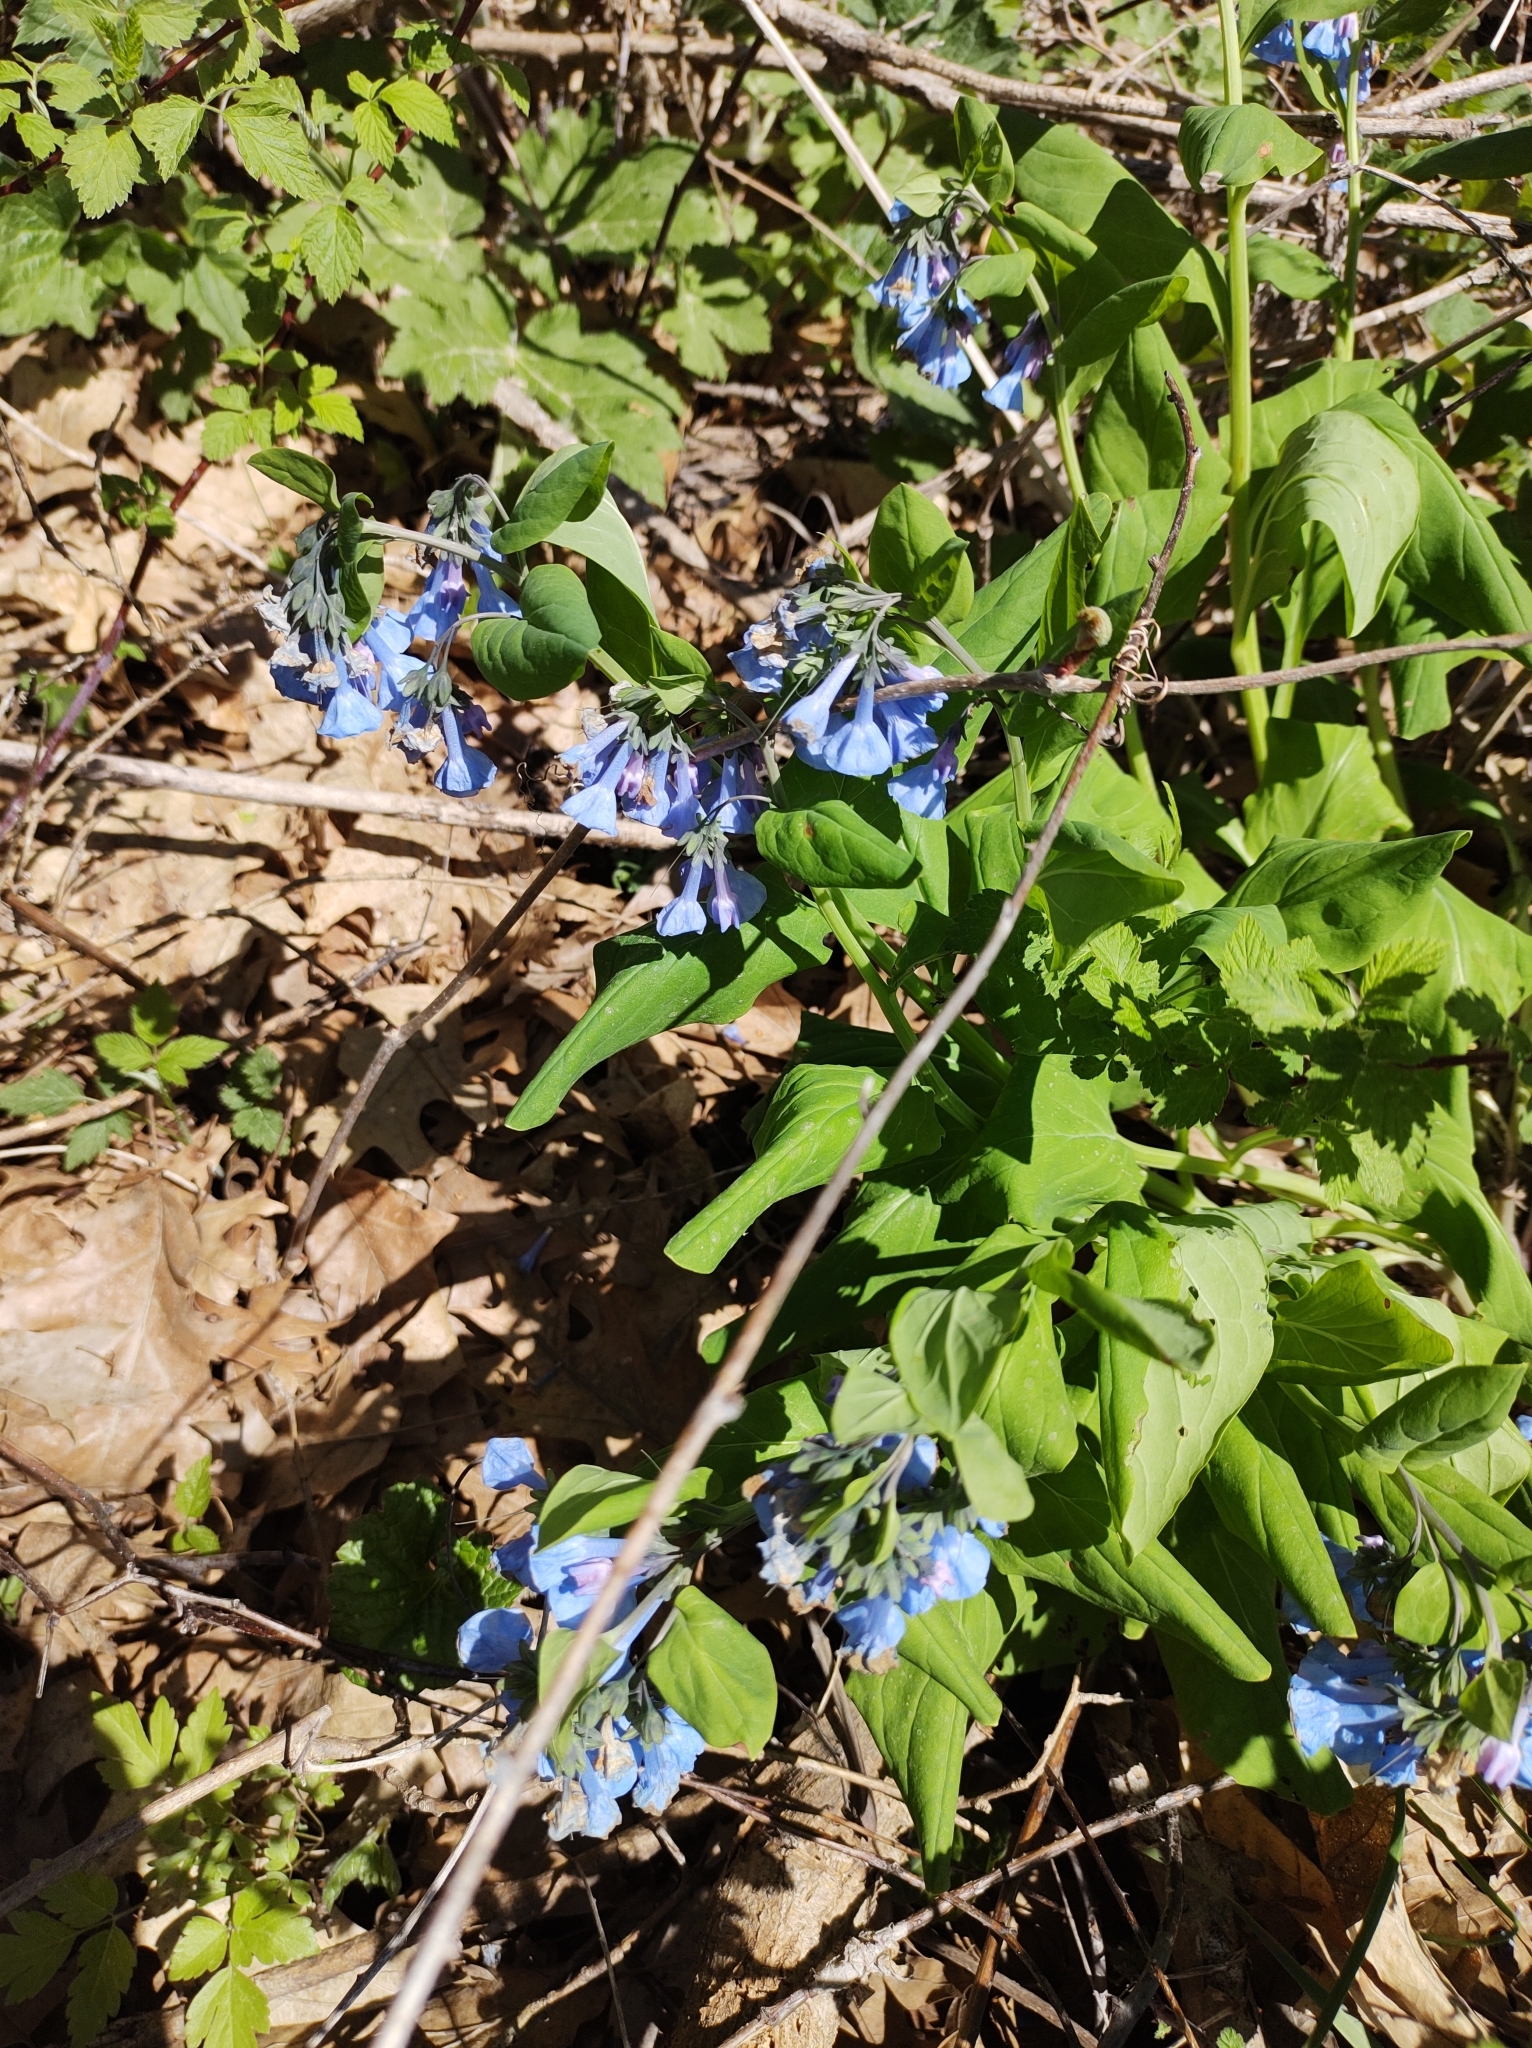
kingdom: Plantae
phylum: Tracheophyta
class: Magnoliopsida
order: Boraginales
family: Boraginaceae
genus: Mertensia
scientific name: Mertensia virginica
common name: Virginia bluebells
